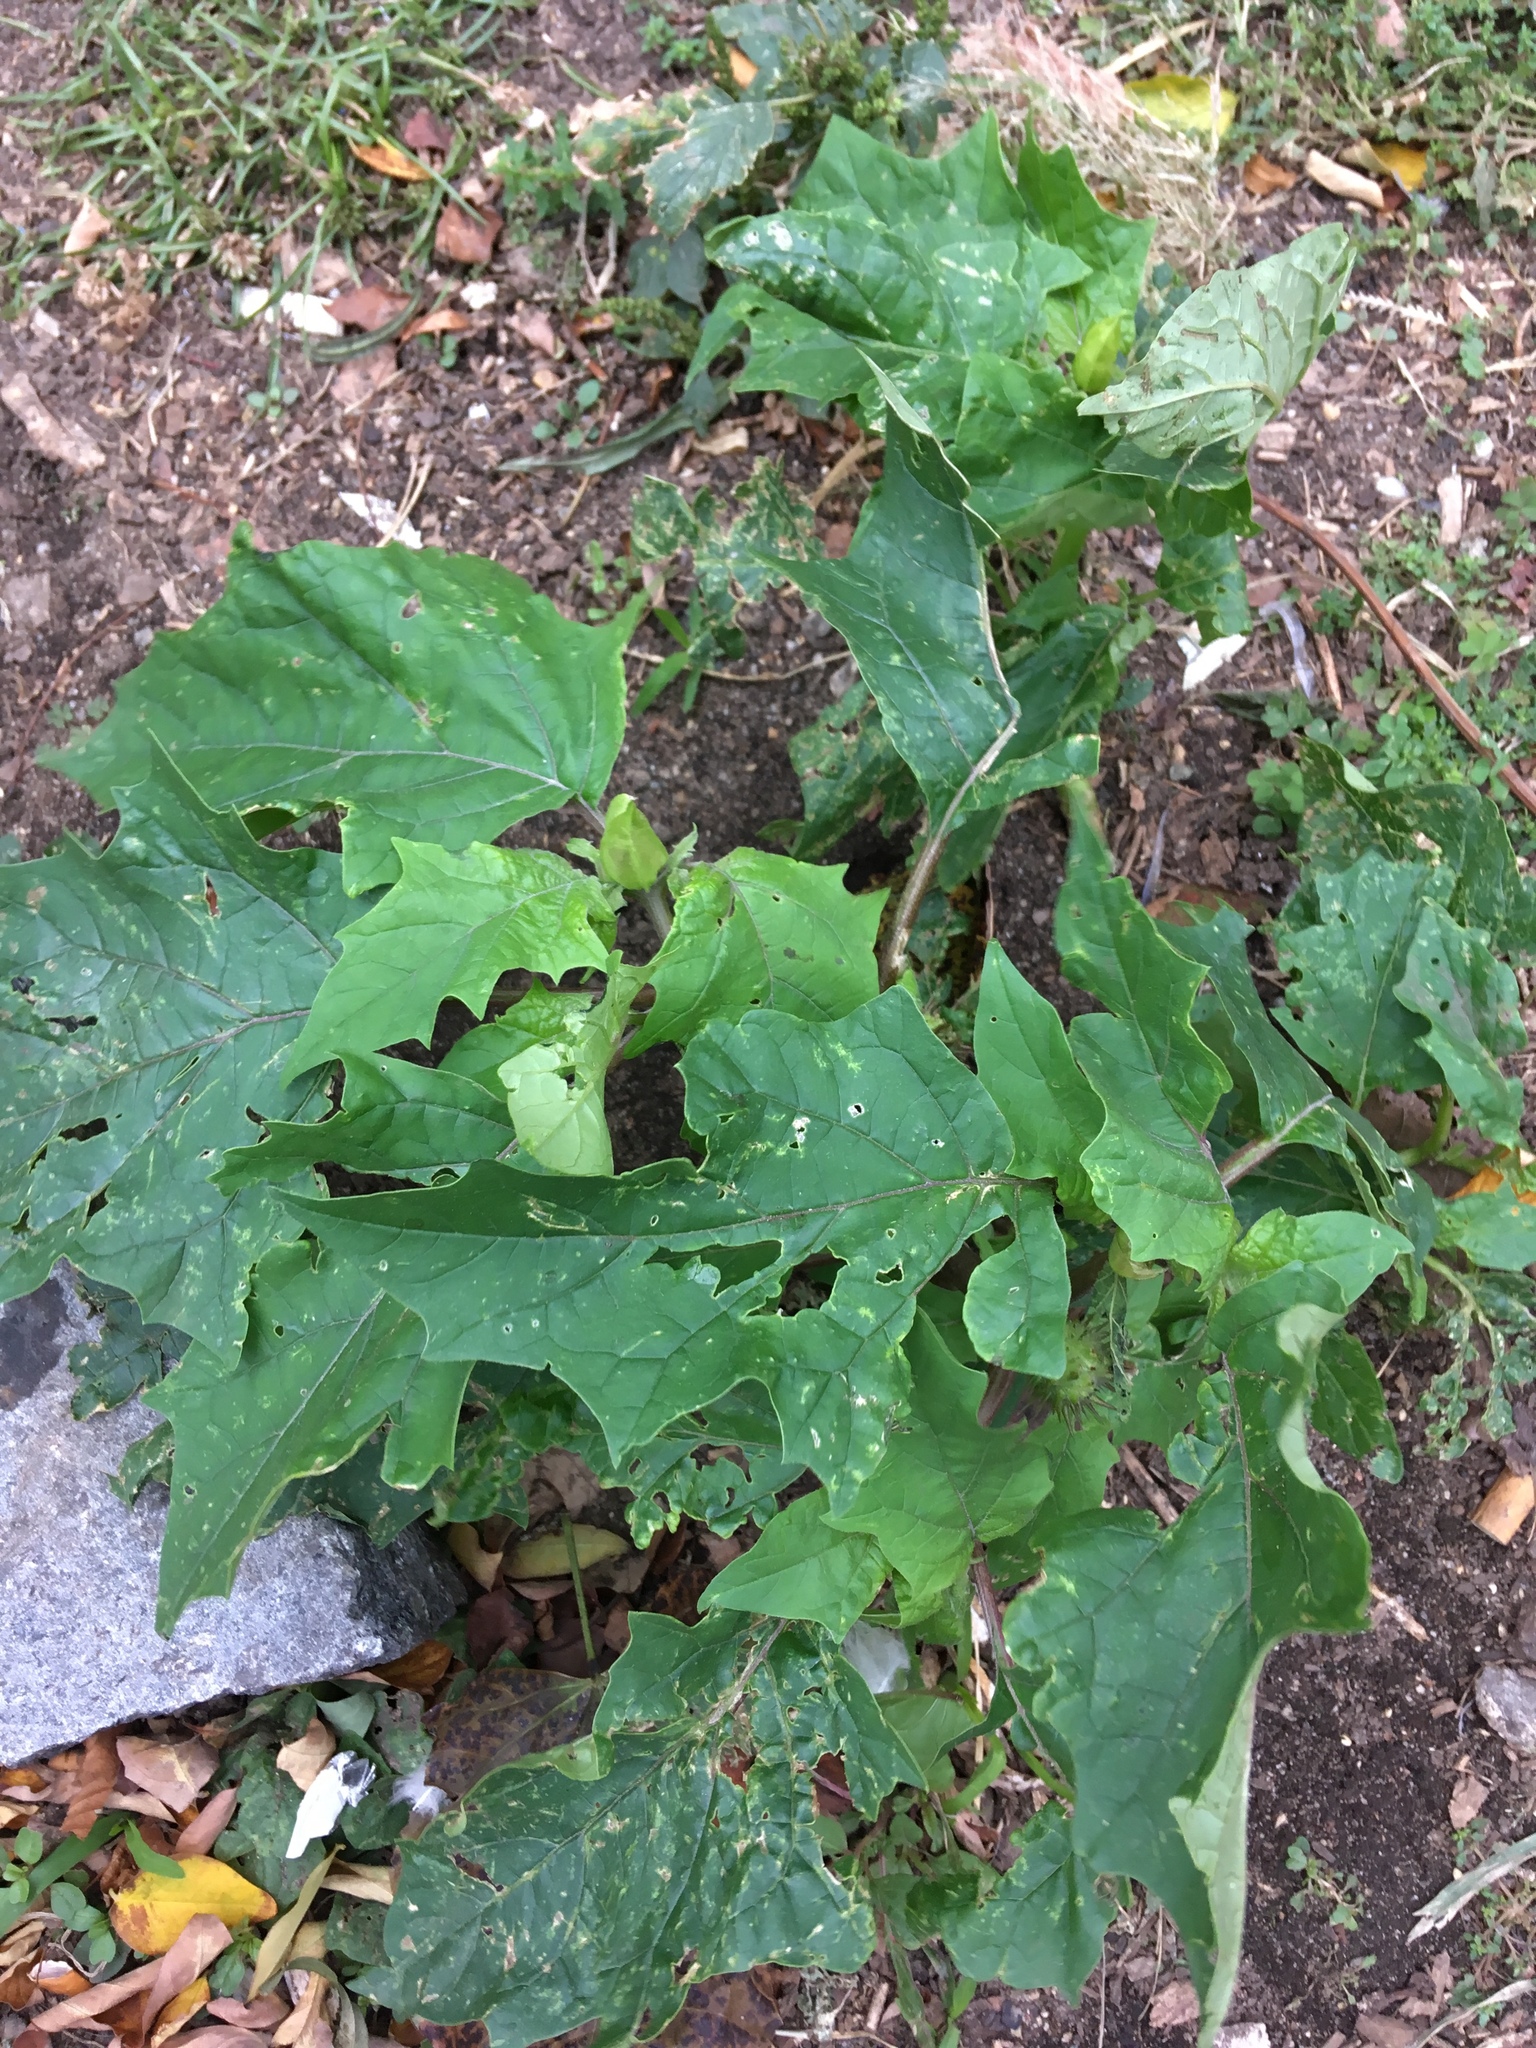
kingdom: Plantae
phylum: Tracheophyta
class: Magnoliopsida
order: Solanales
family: Solanaceae
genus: Datura
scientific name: Datura stramonium
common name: Thorn-apple
